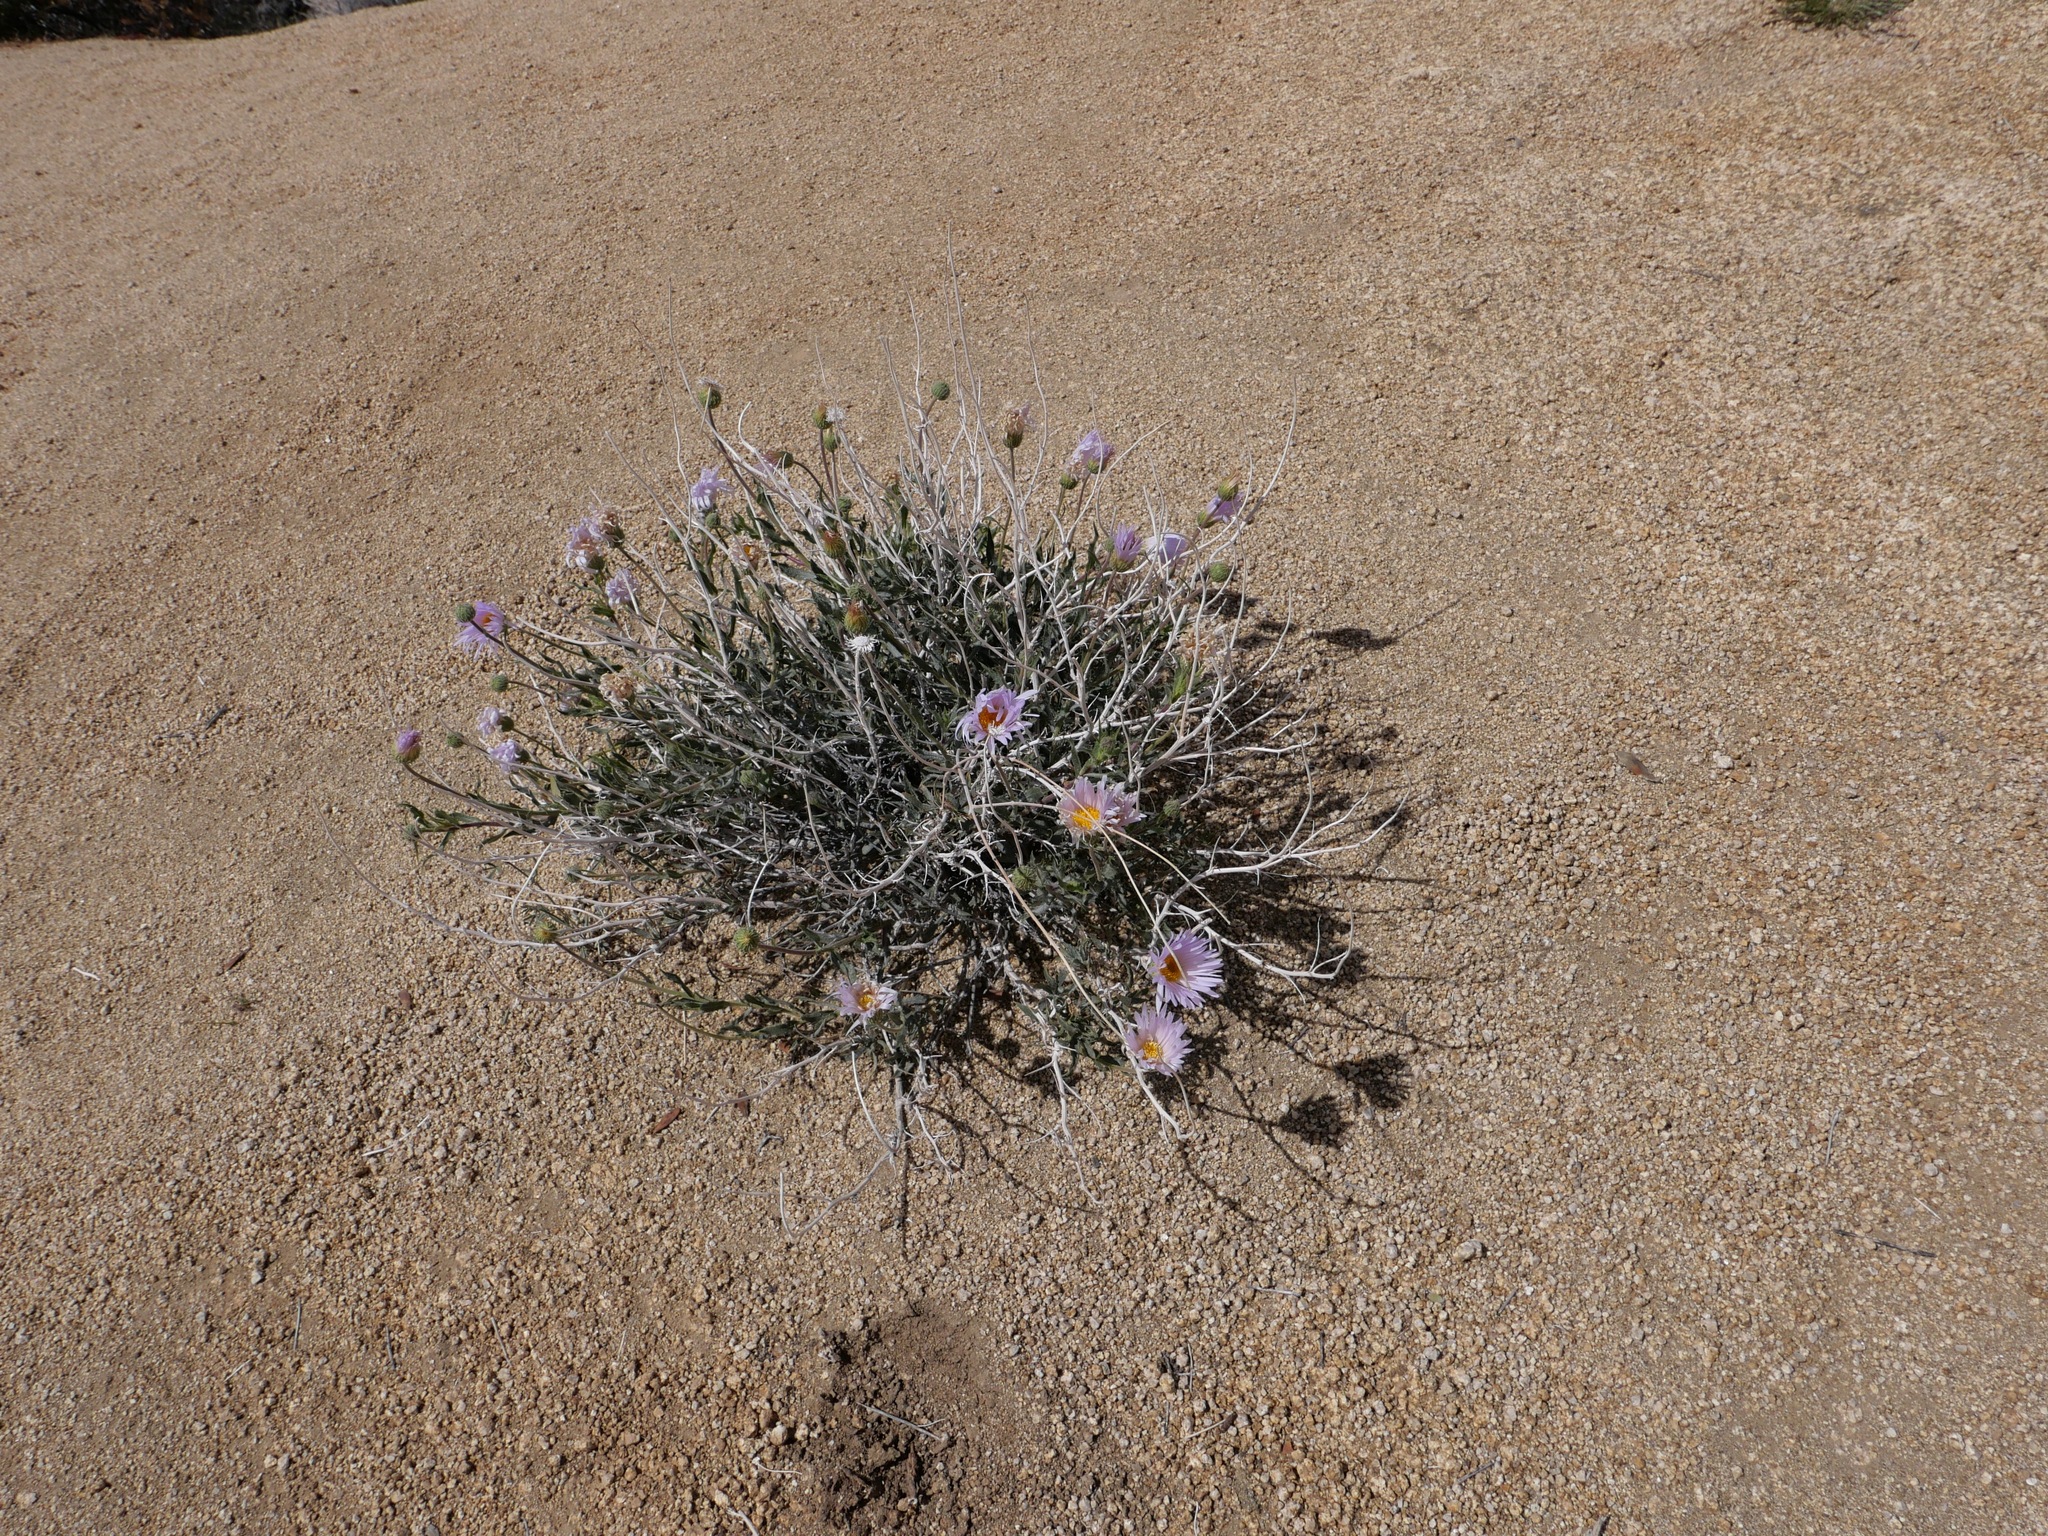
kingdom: Plantae
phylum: Tracheophyta
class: Magnoliopsida
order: Asterales
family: Asteraceae
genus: Xylorhiza
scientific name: Xylorhiza tortifolia
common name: Hurt-leaf woody-aster
